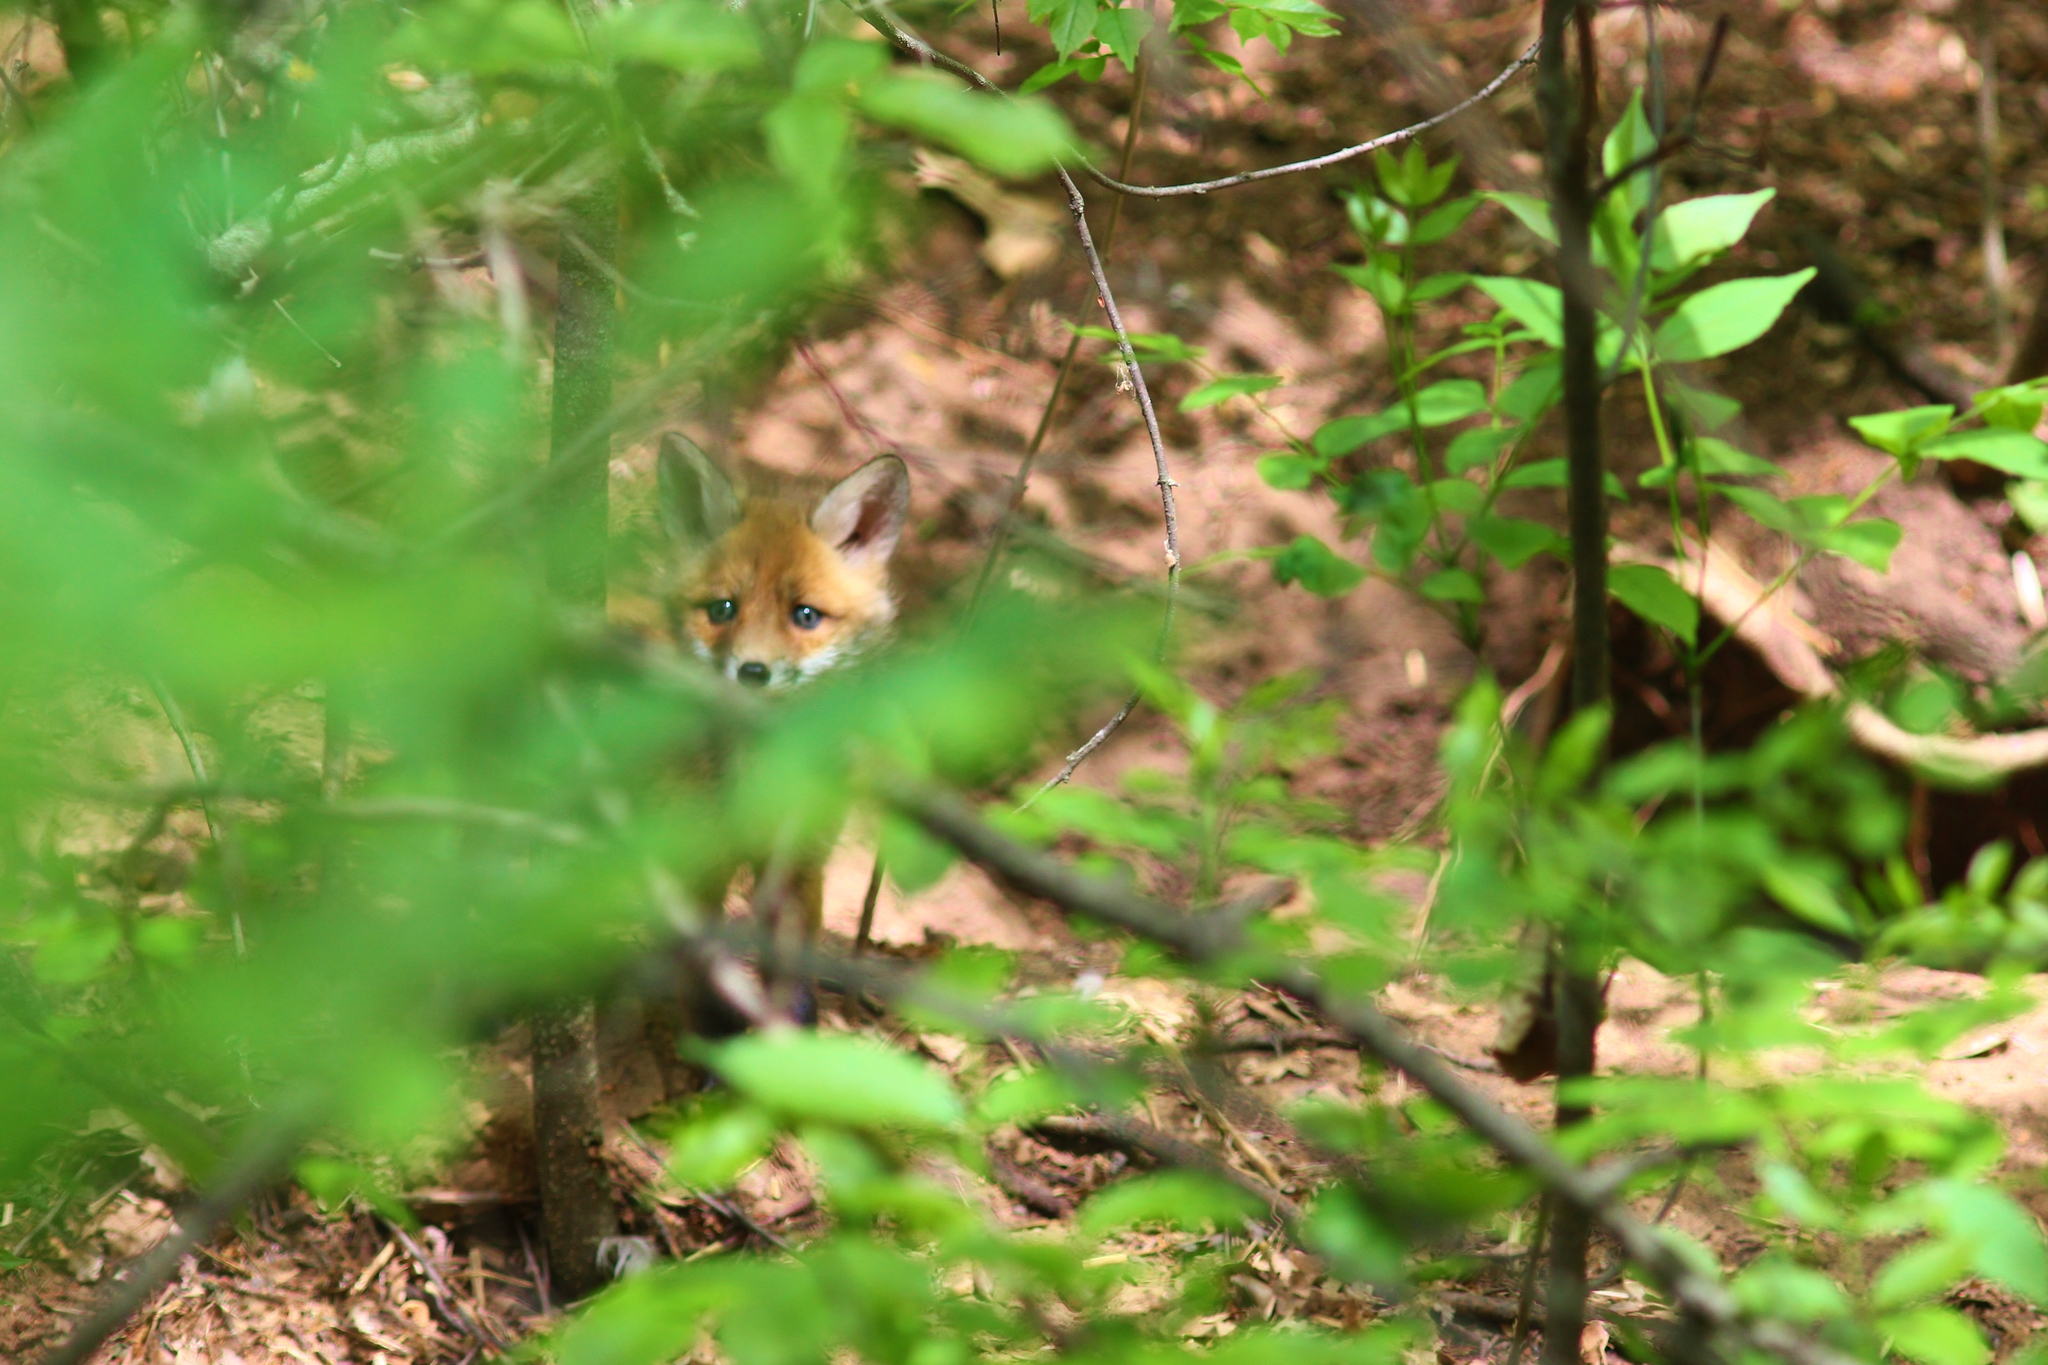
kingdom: Animalia
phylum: Chordata
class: Mammalia
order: Carnivora
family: Canidae
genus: Vulpes
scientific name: Vulpes vulpes
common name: Red fox
